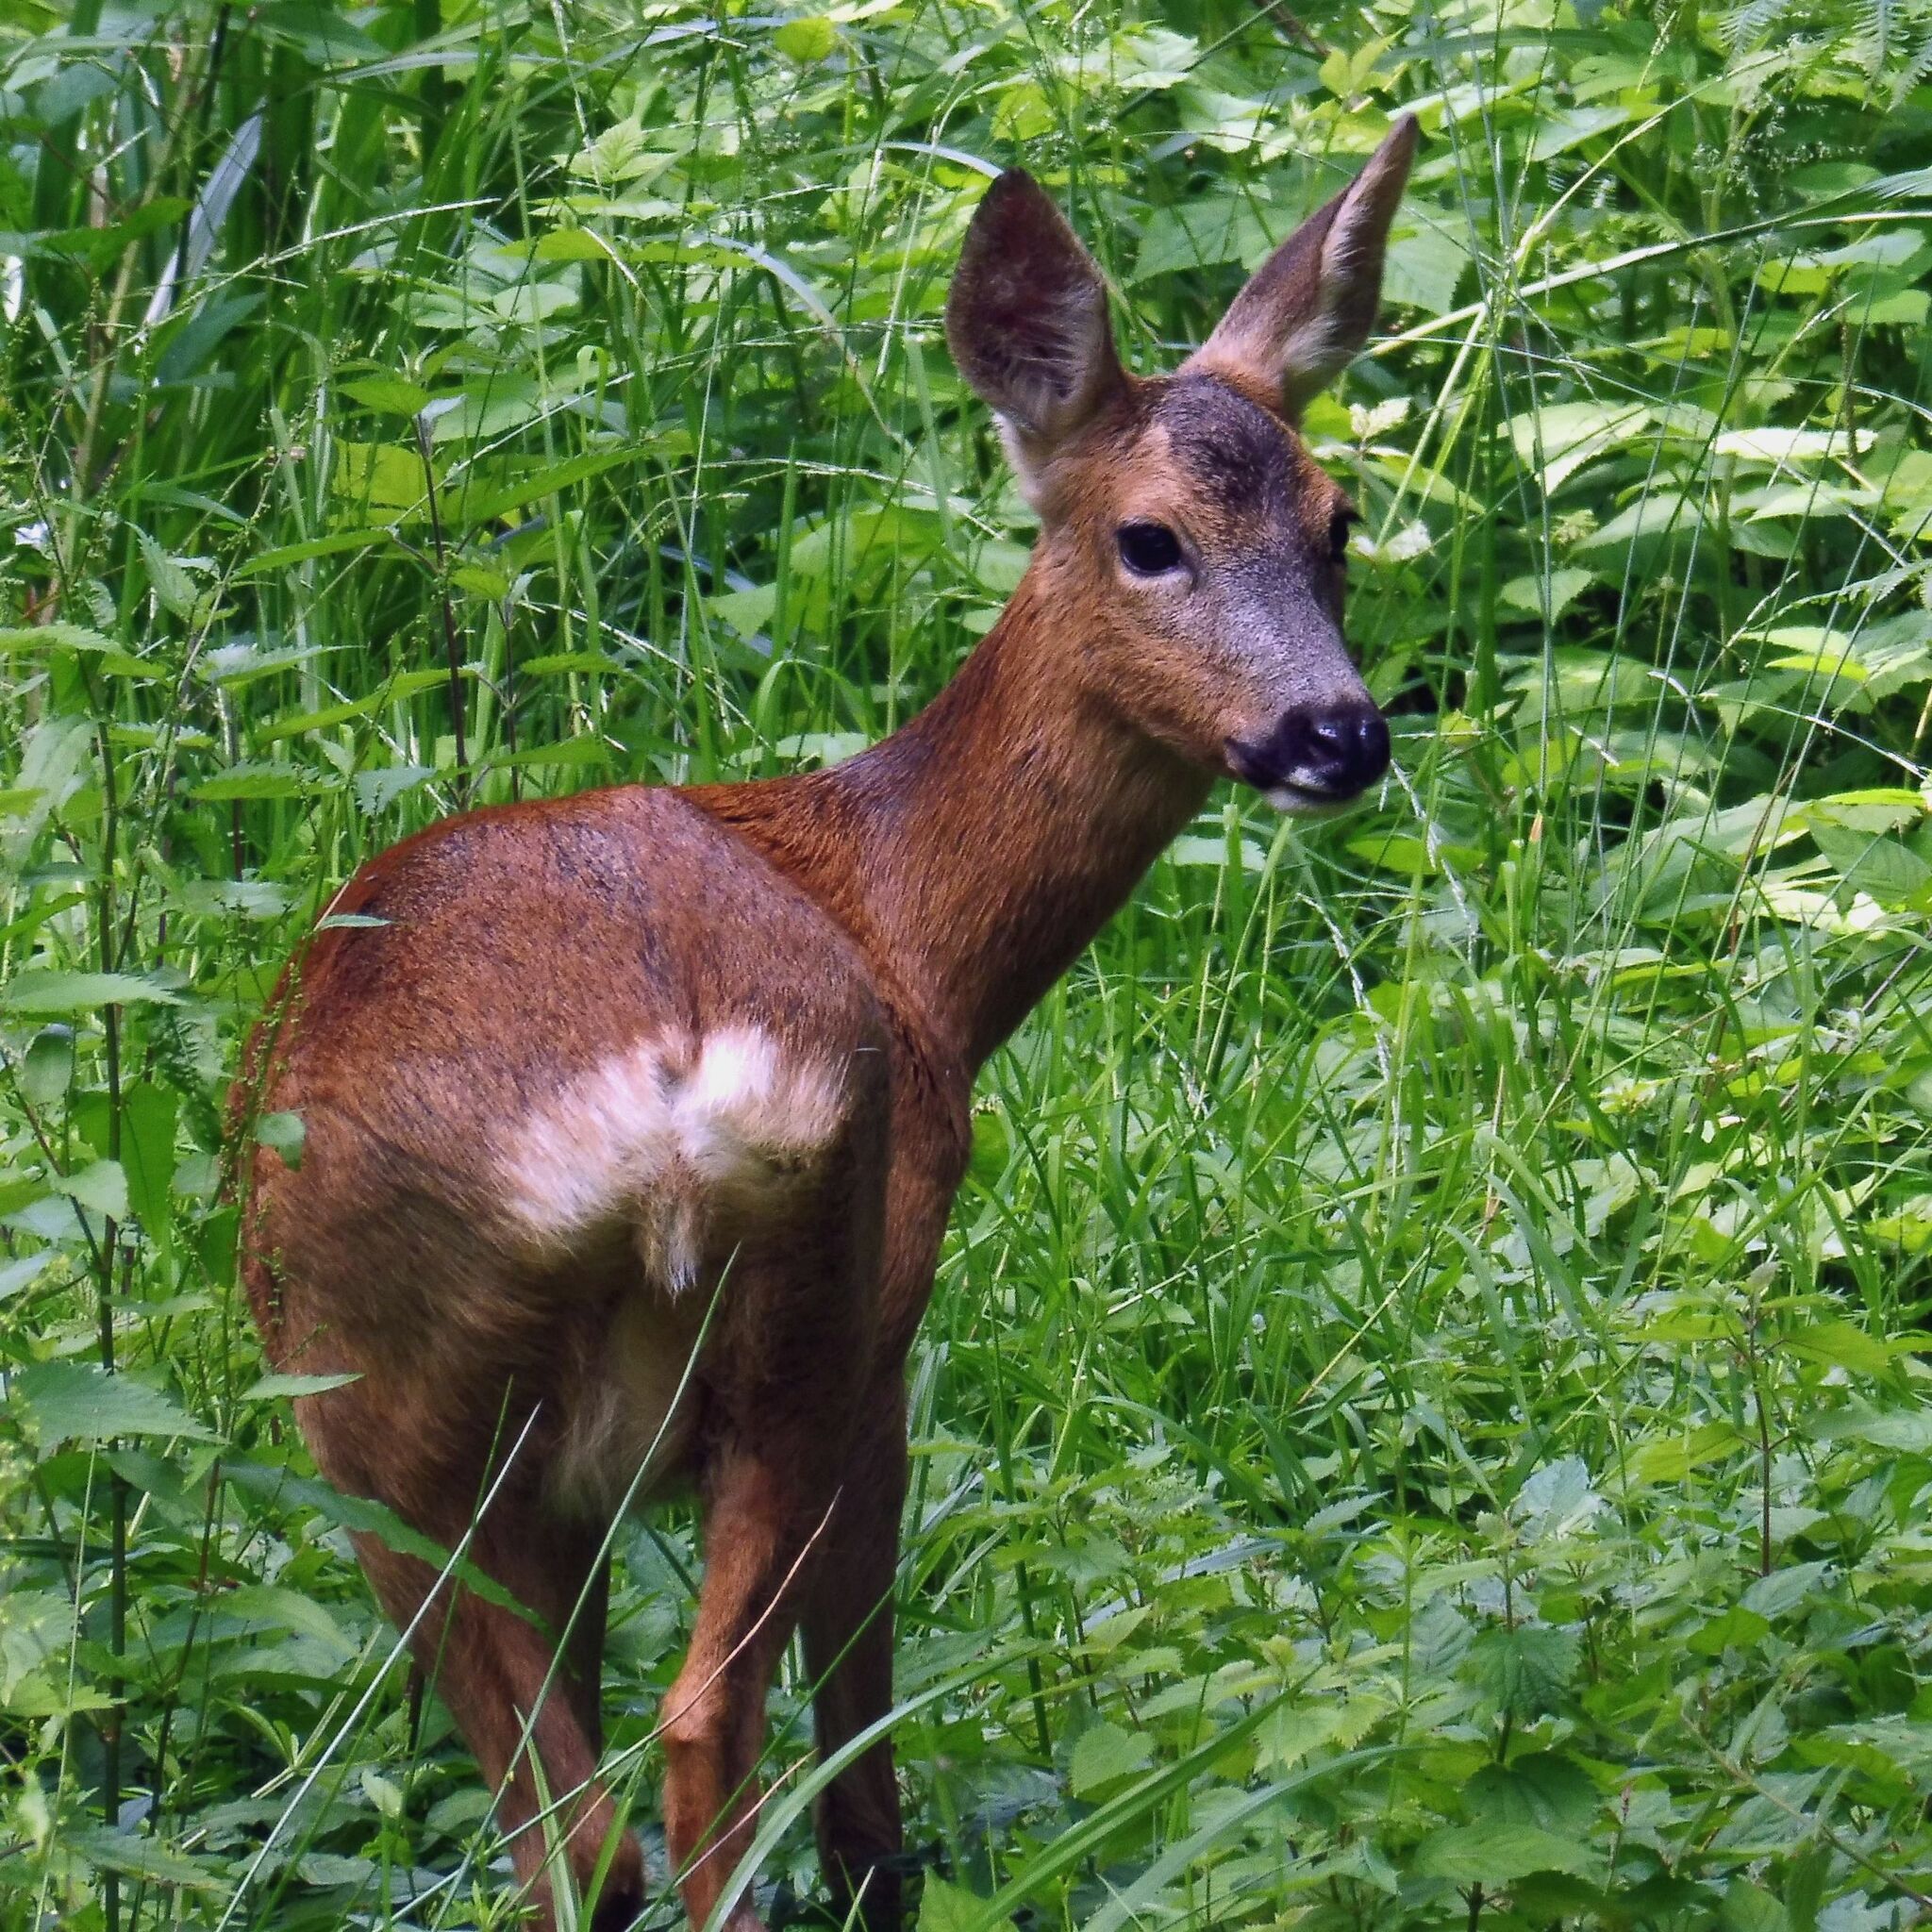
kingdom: Animalia
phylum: Chordata
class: Mammalia
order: Artiodactyla
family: Cervidae
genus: Capreolus
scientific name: Capreolus capreolus
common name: Western roe deer
